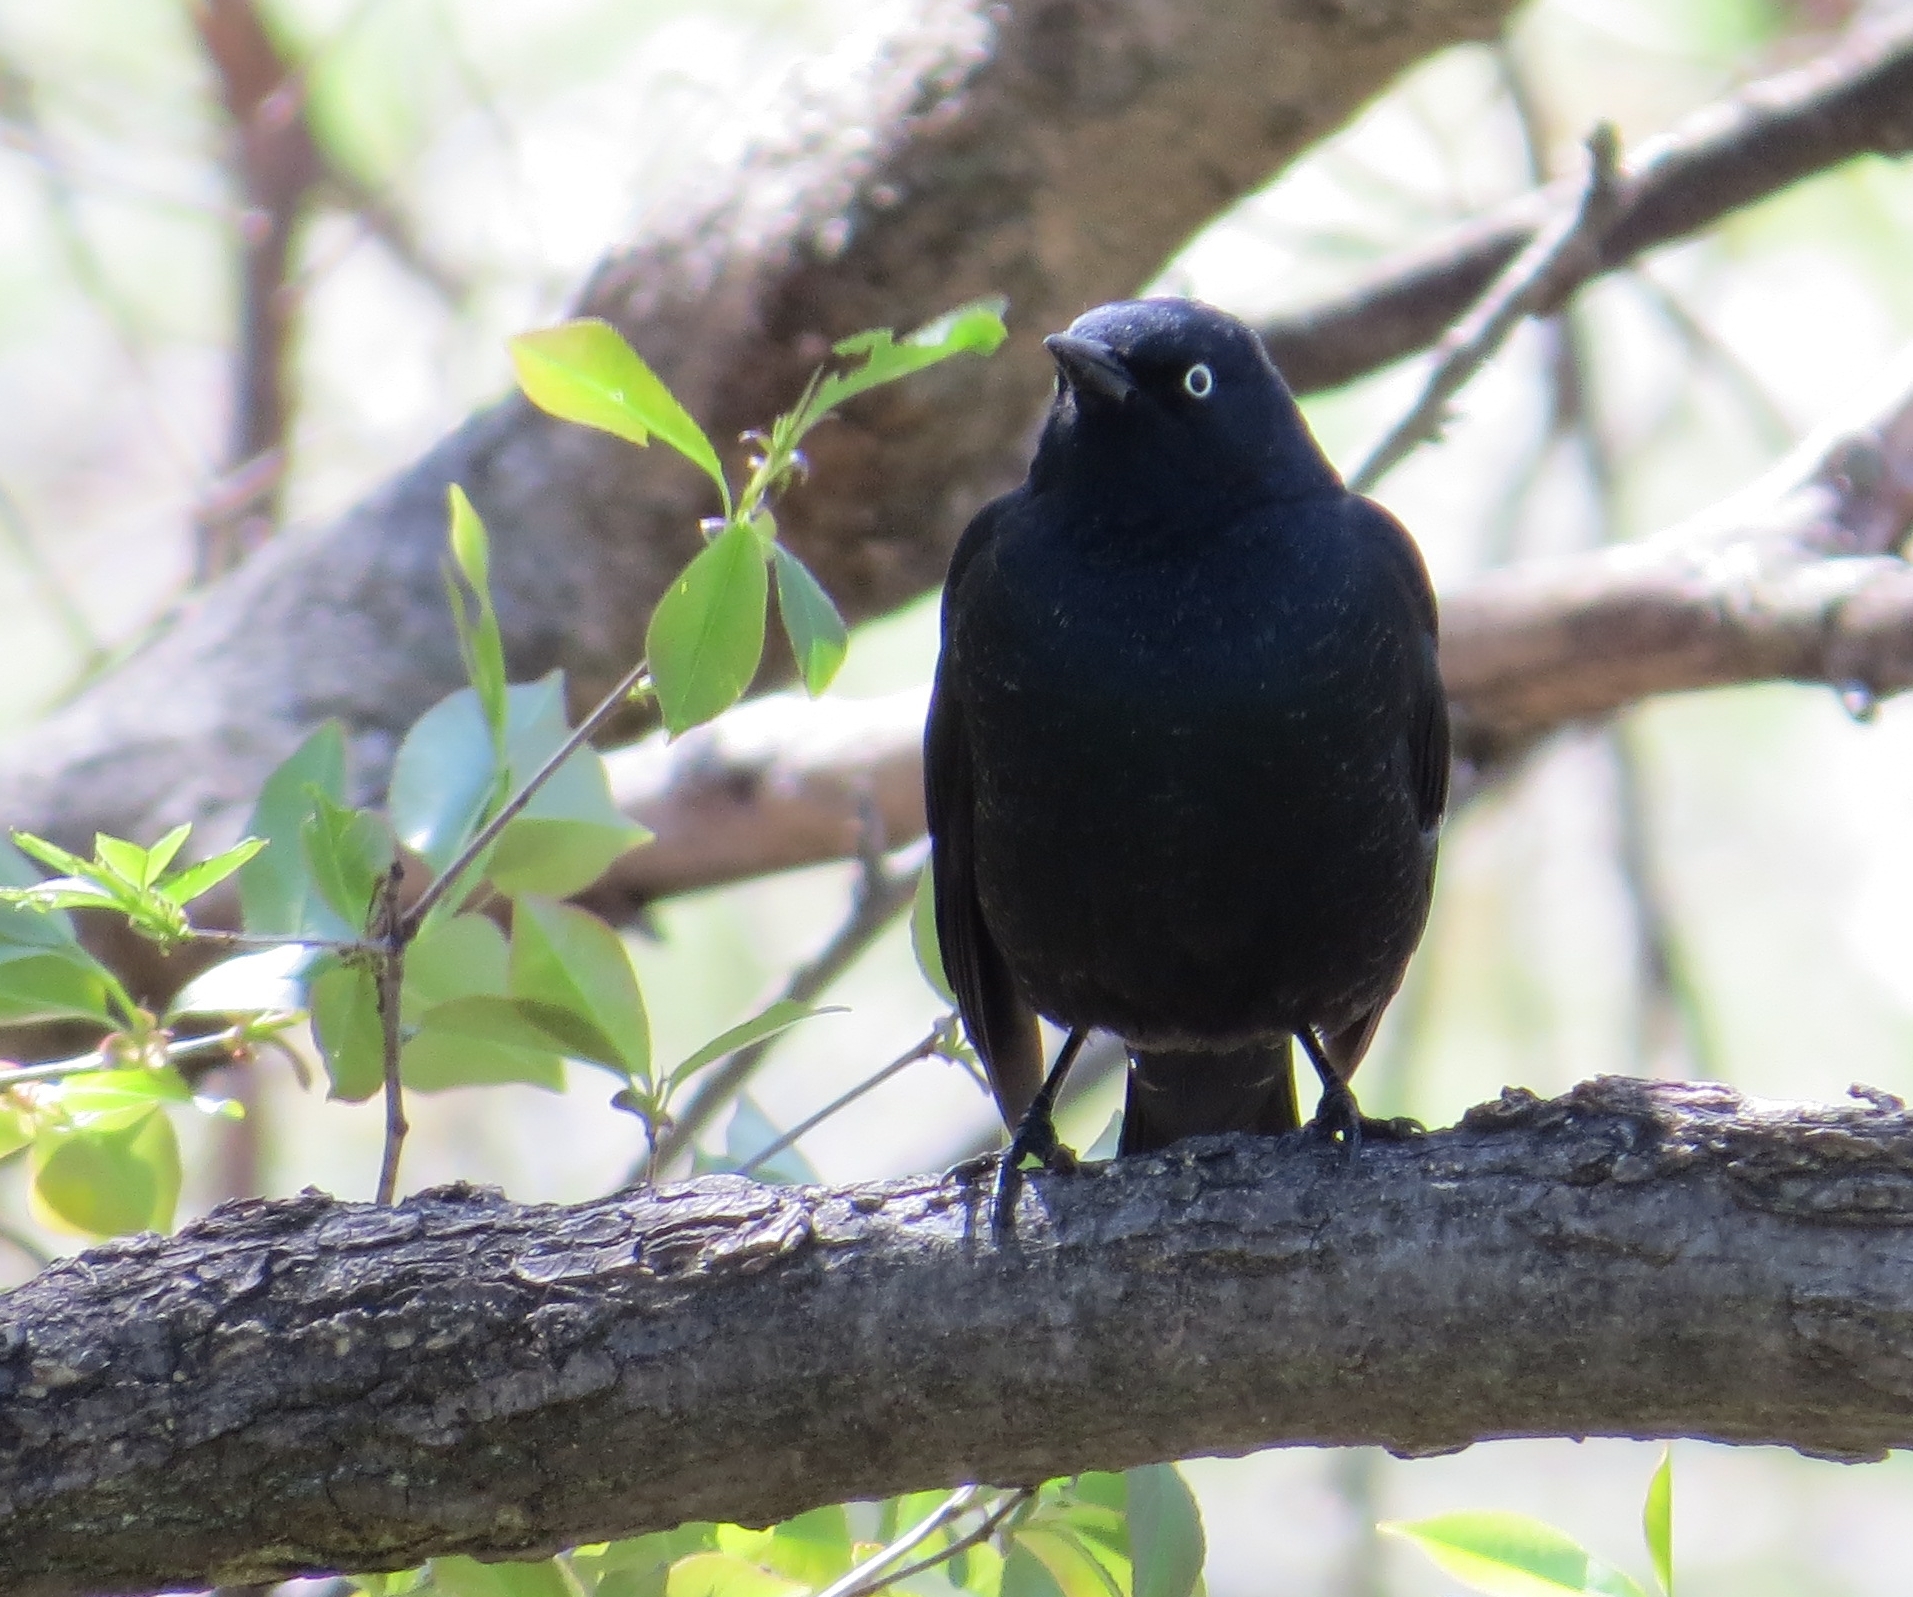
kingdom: Animalia
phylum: Chordata
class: Aves
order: Passeriformes
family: Icteridae
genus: Euphagus
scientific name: Euphagus carolinus
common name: Rusty blackbird
